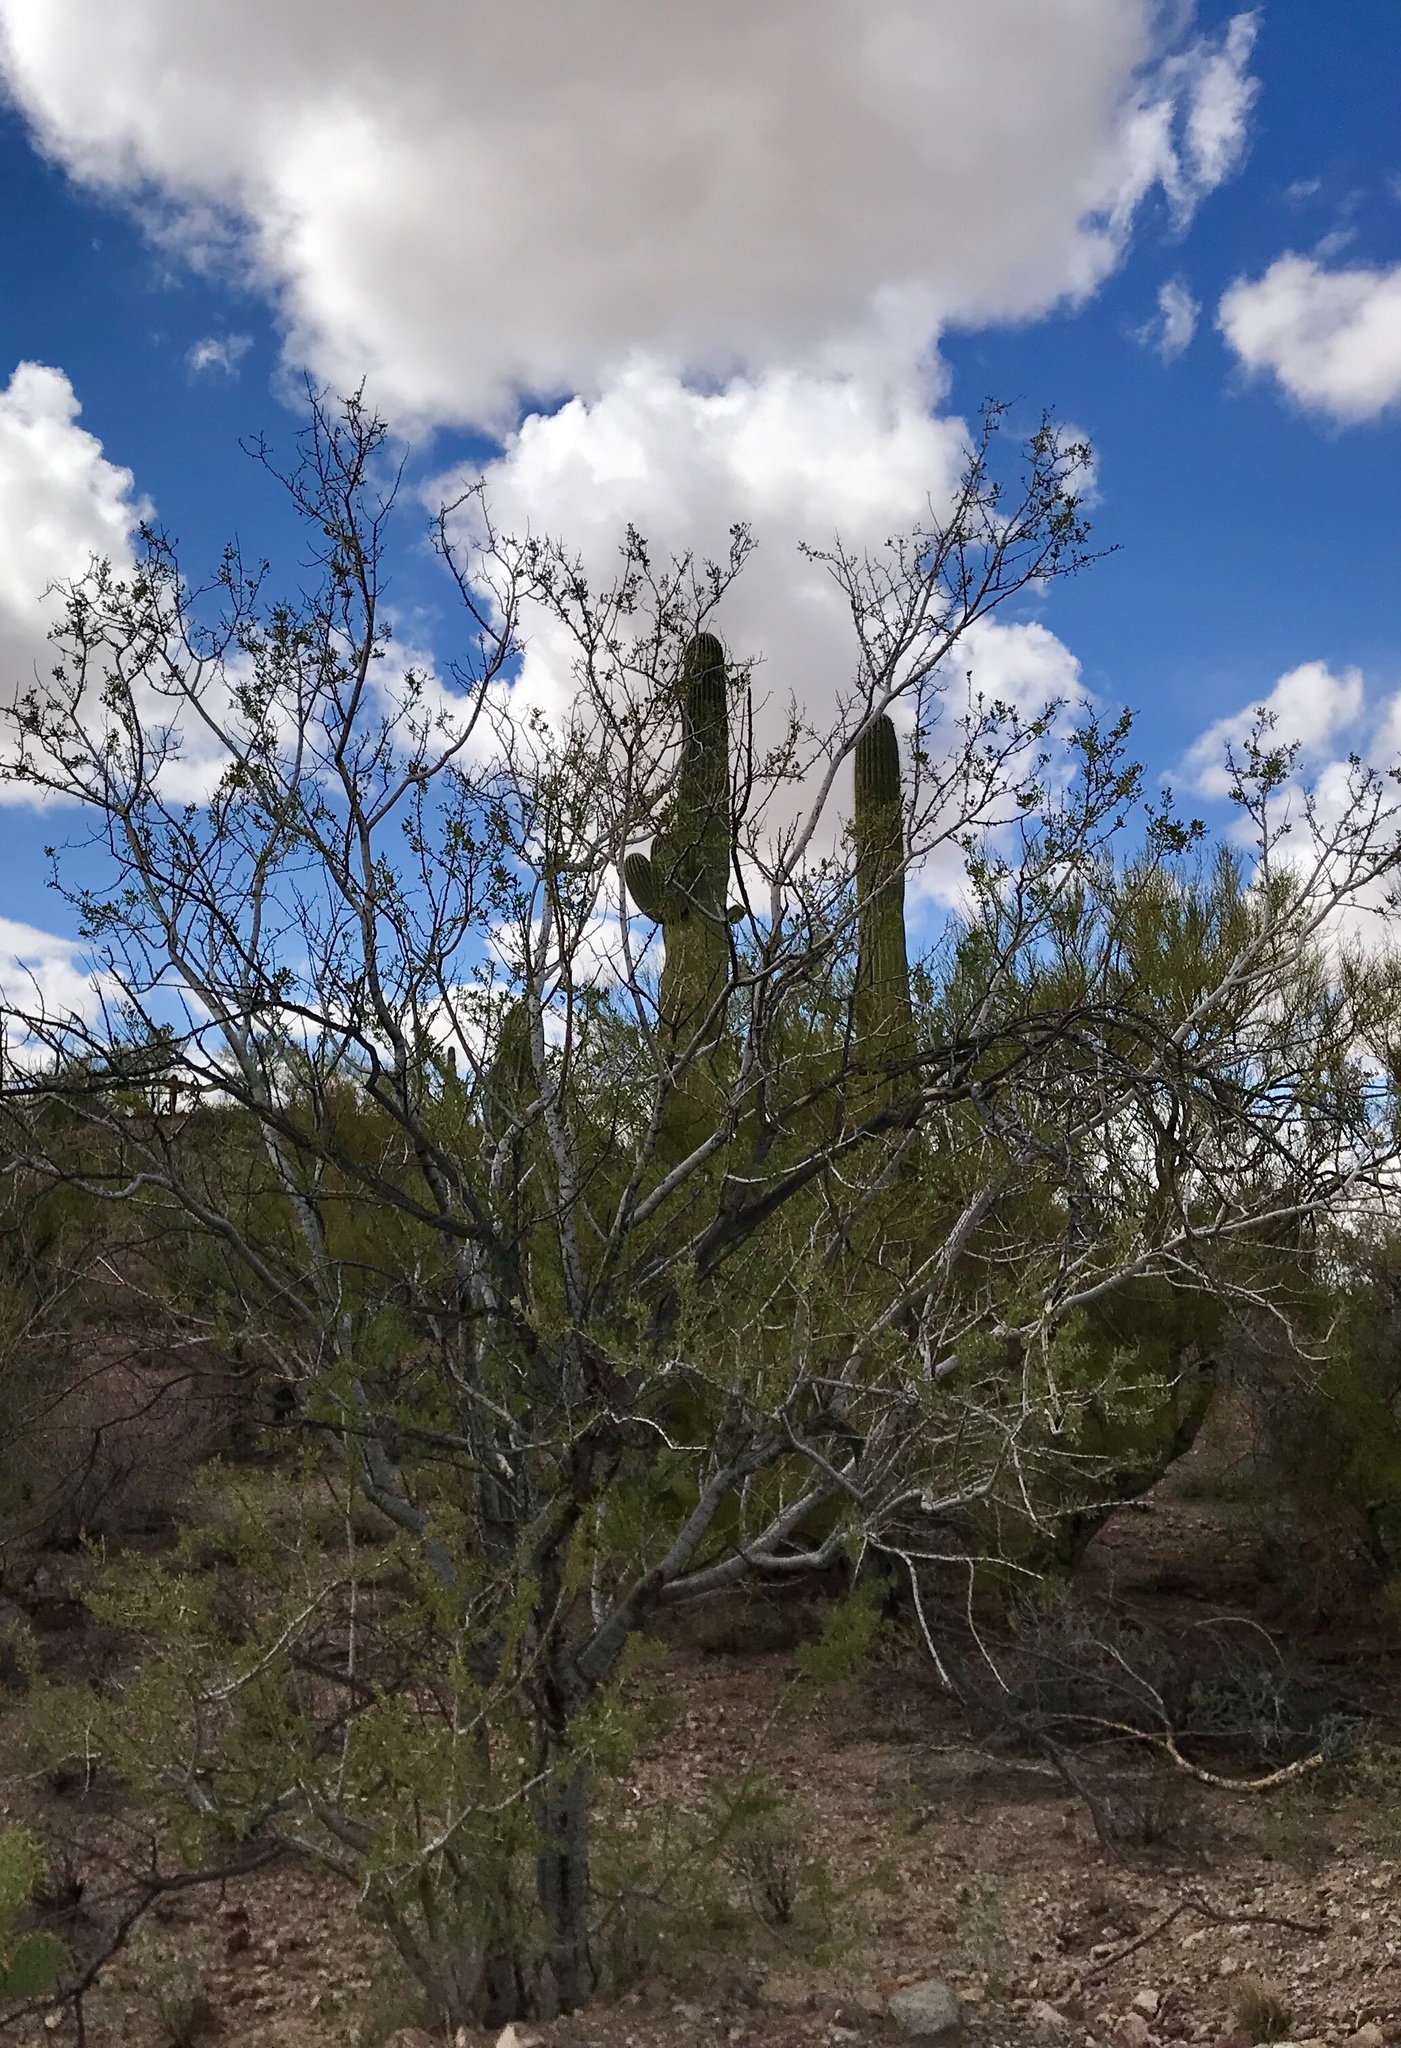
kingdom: Plantae
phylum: Tracheophyta
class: Magnoliopsida
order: Fabales
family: Fabaceae
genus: Olneya
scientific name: Olneya tesota
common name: Desert ironwood
